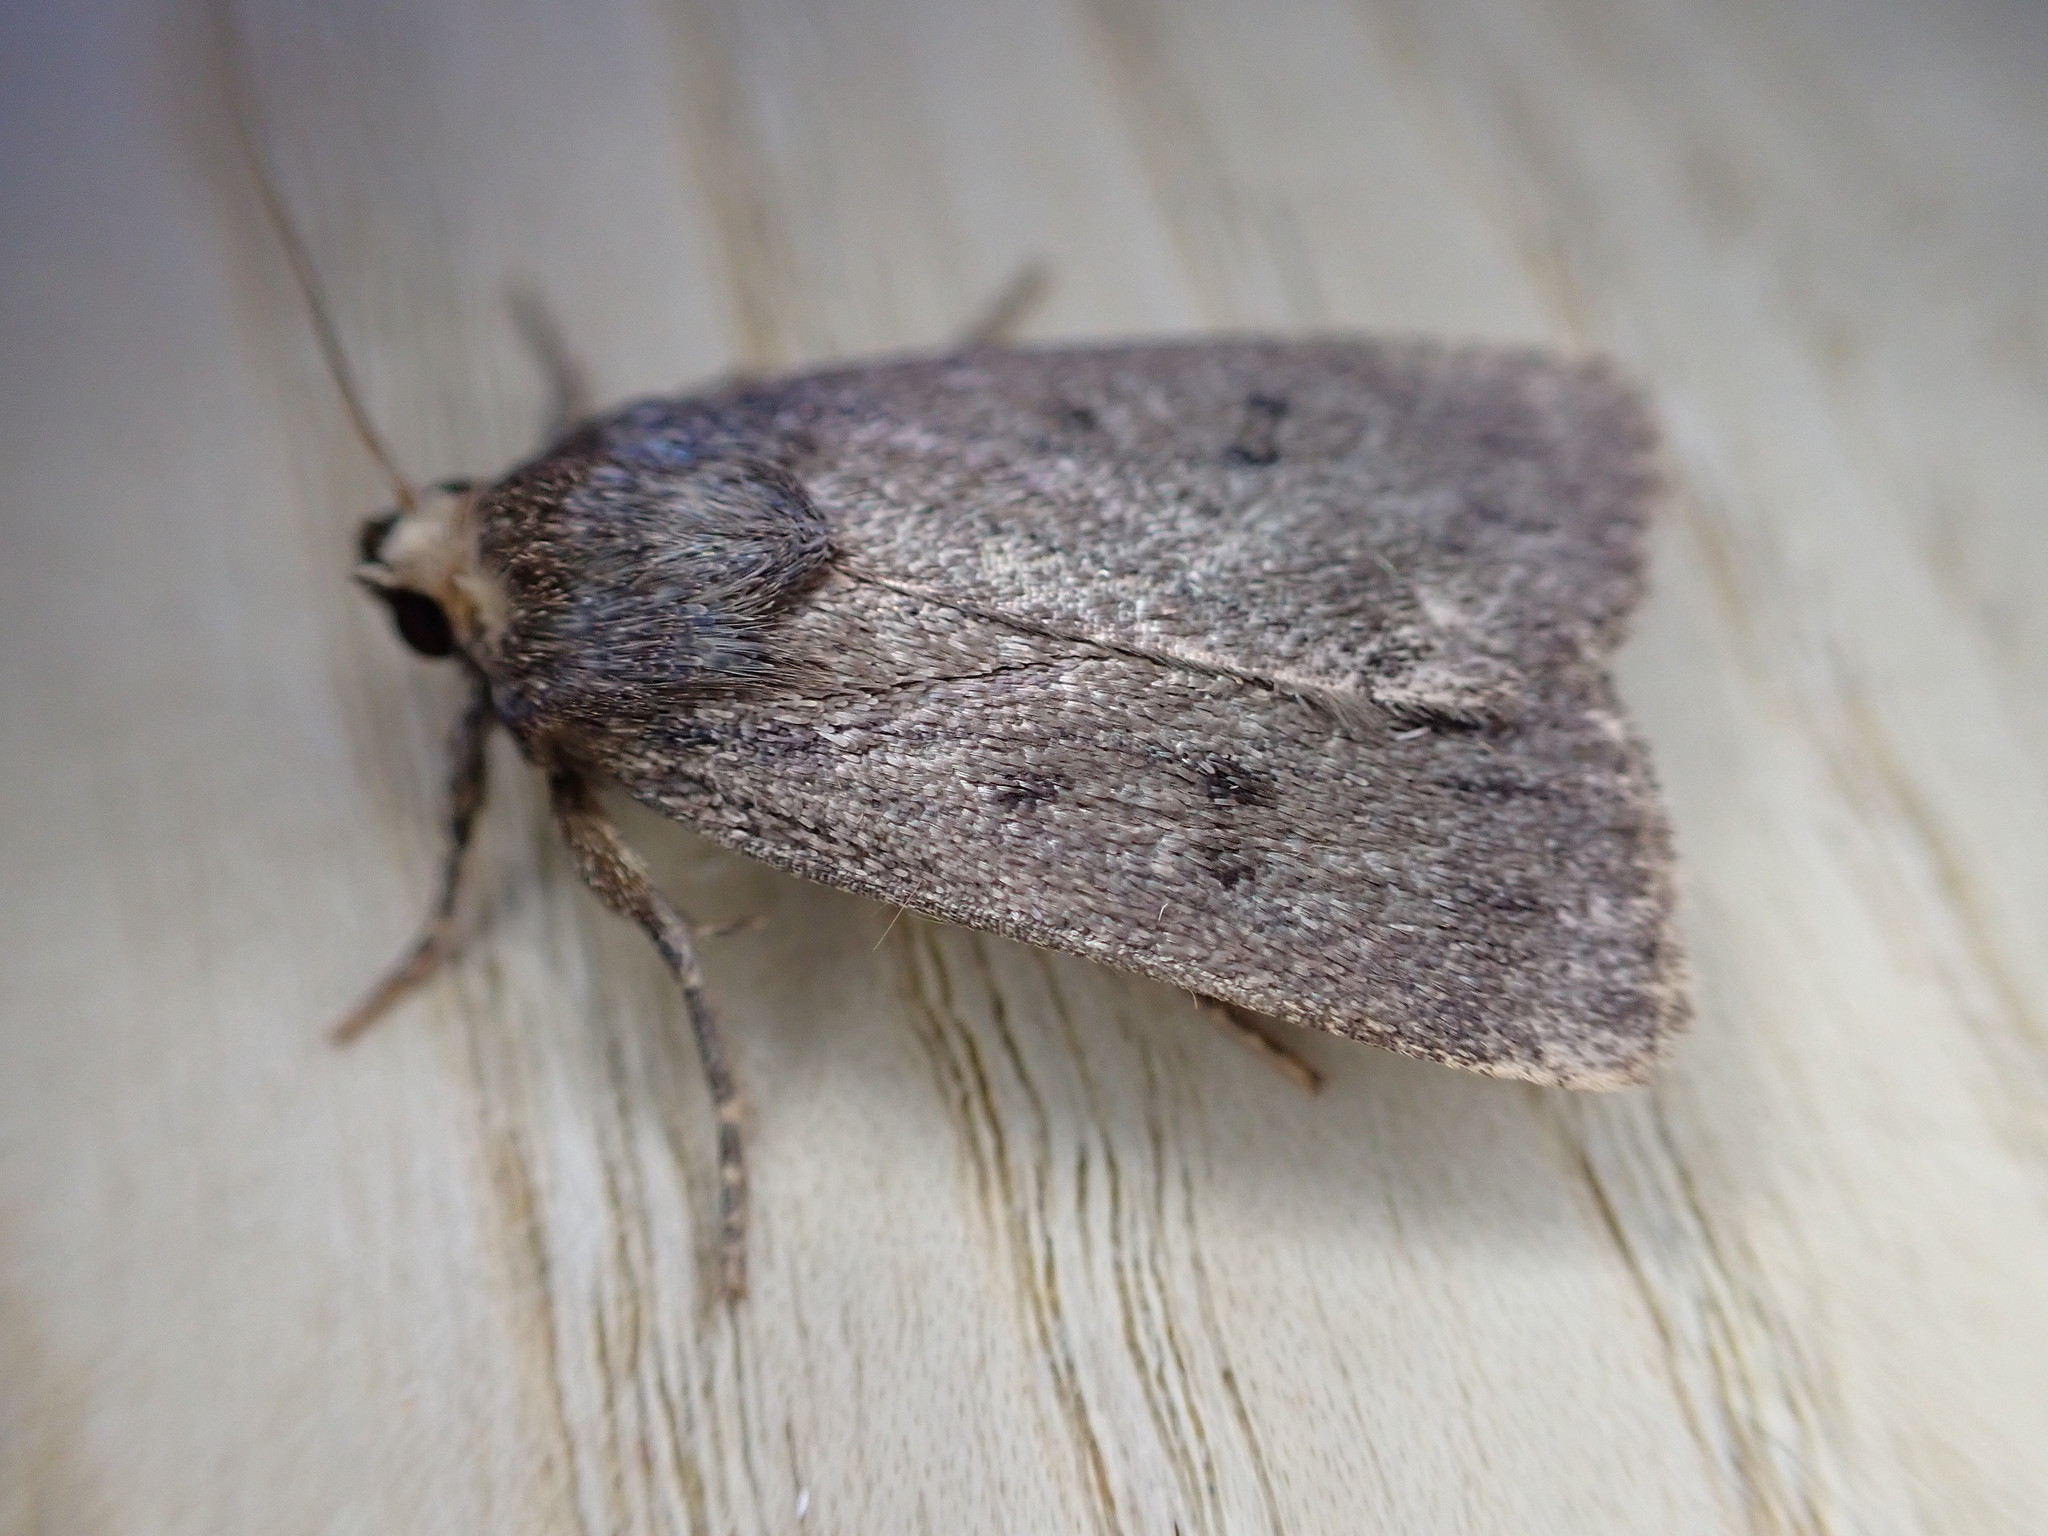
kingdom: Animalia
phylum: Arthropoda
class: Insecta
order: Lepidoptera
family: Noctuidae
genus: Amphipyra
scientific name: Amphipyra tragopoginis
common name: Mouse moth
